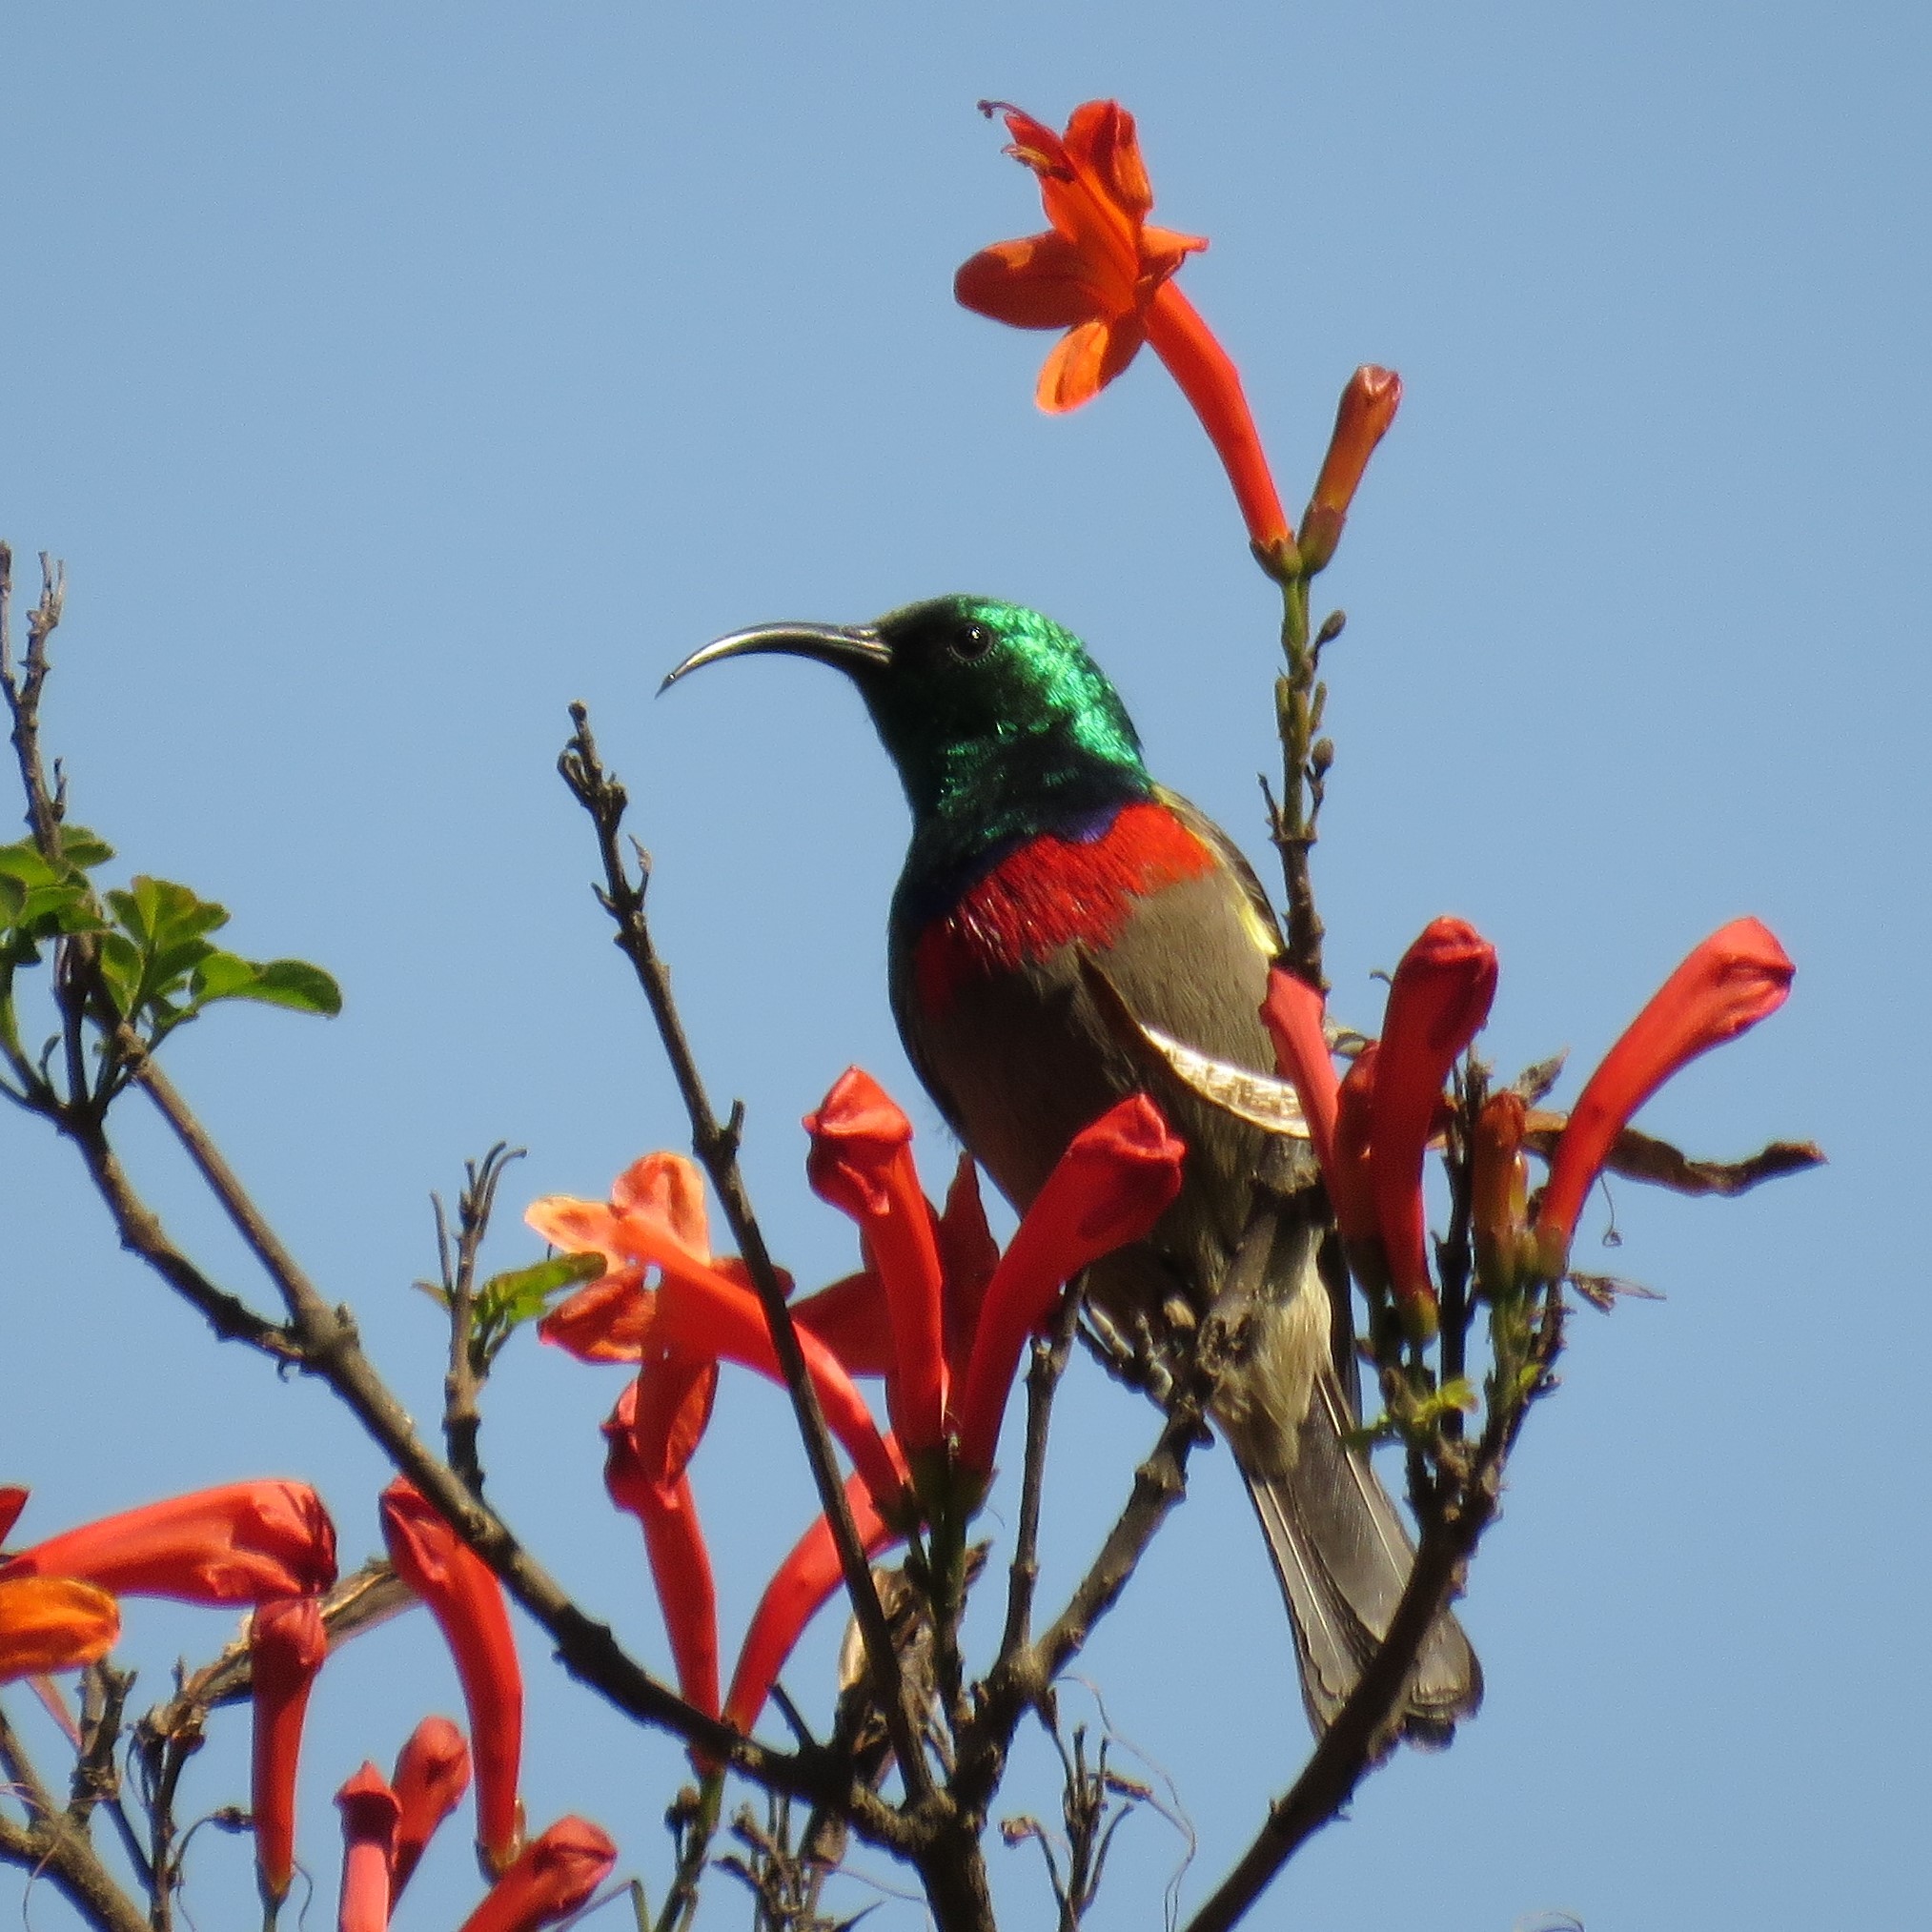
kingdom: Animalia
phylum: Chordata
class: Aves
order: Passeriformes
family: Nectariniidae
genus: Cinnyris
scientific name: Cinnyris chalybeus
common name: Southern double-collared sunbird
